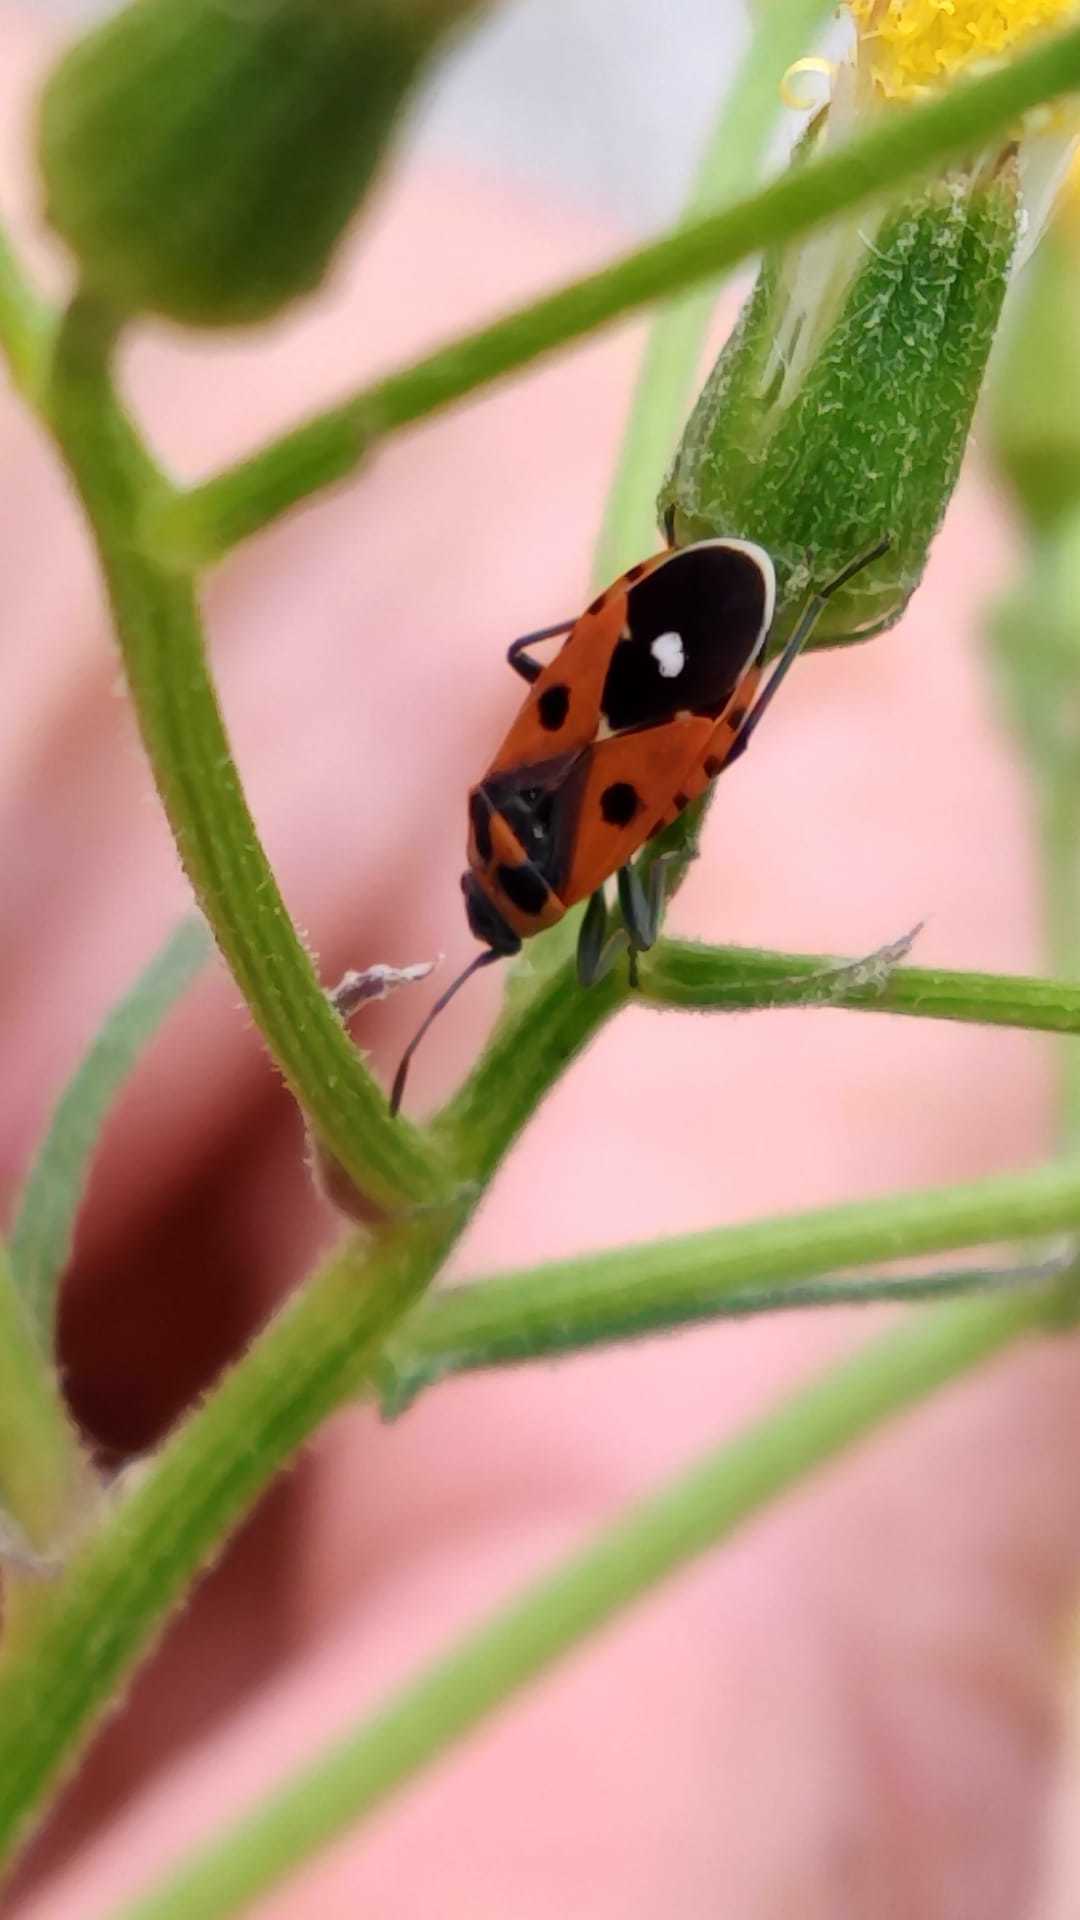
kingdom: Animalia
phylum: Arthropoda
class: Insecta
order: Hemiptera
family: Lygaeidae
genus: Melanocoryphus
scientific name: Melanocoryphus albomaculatus
